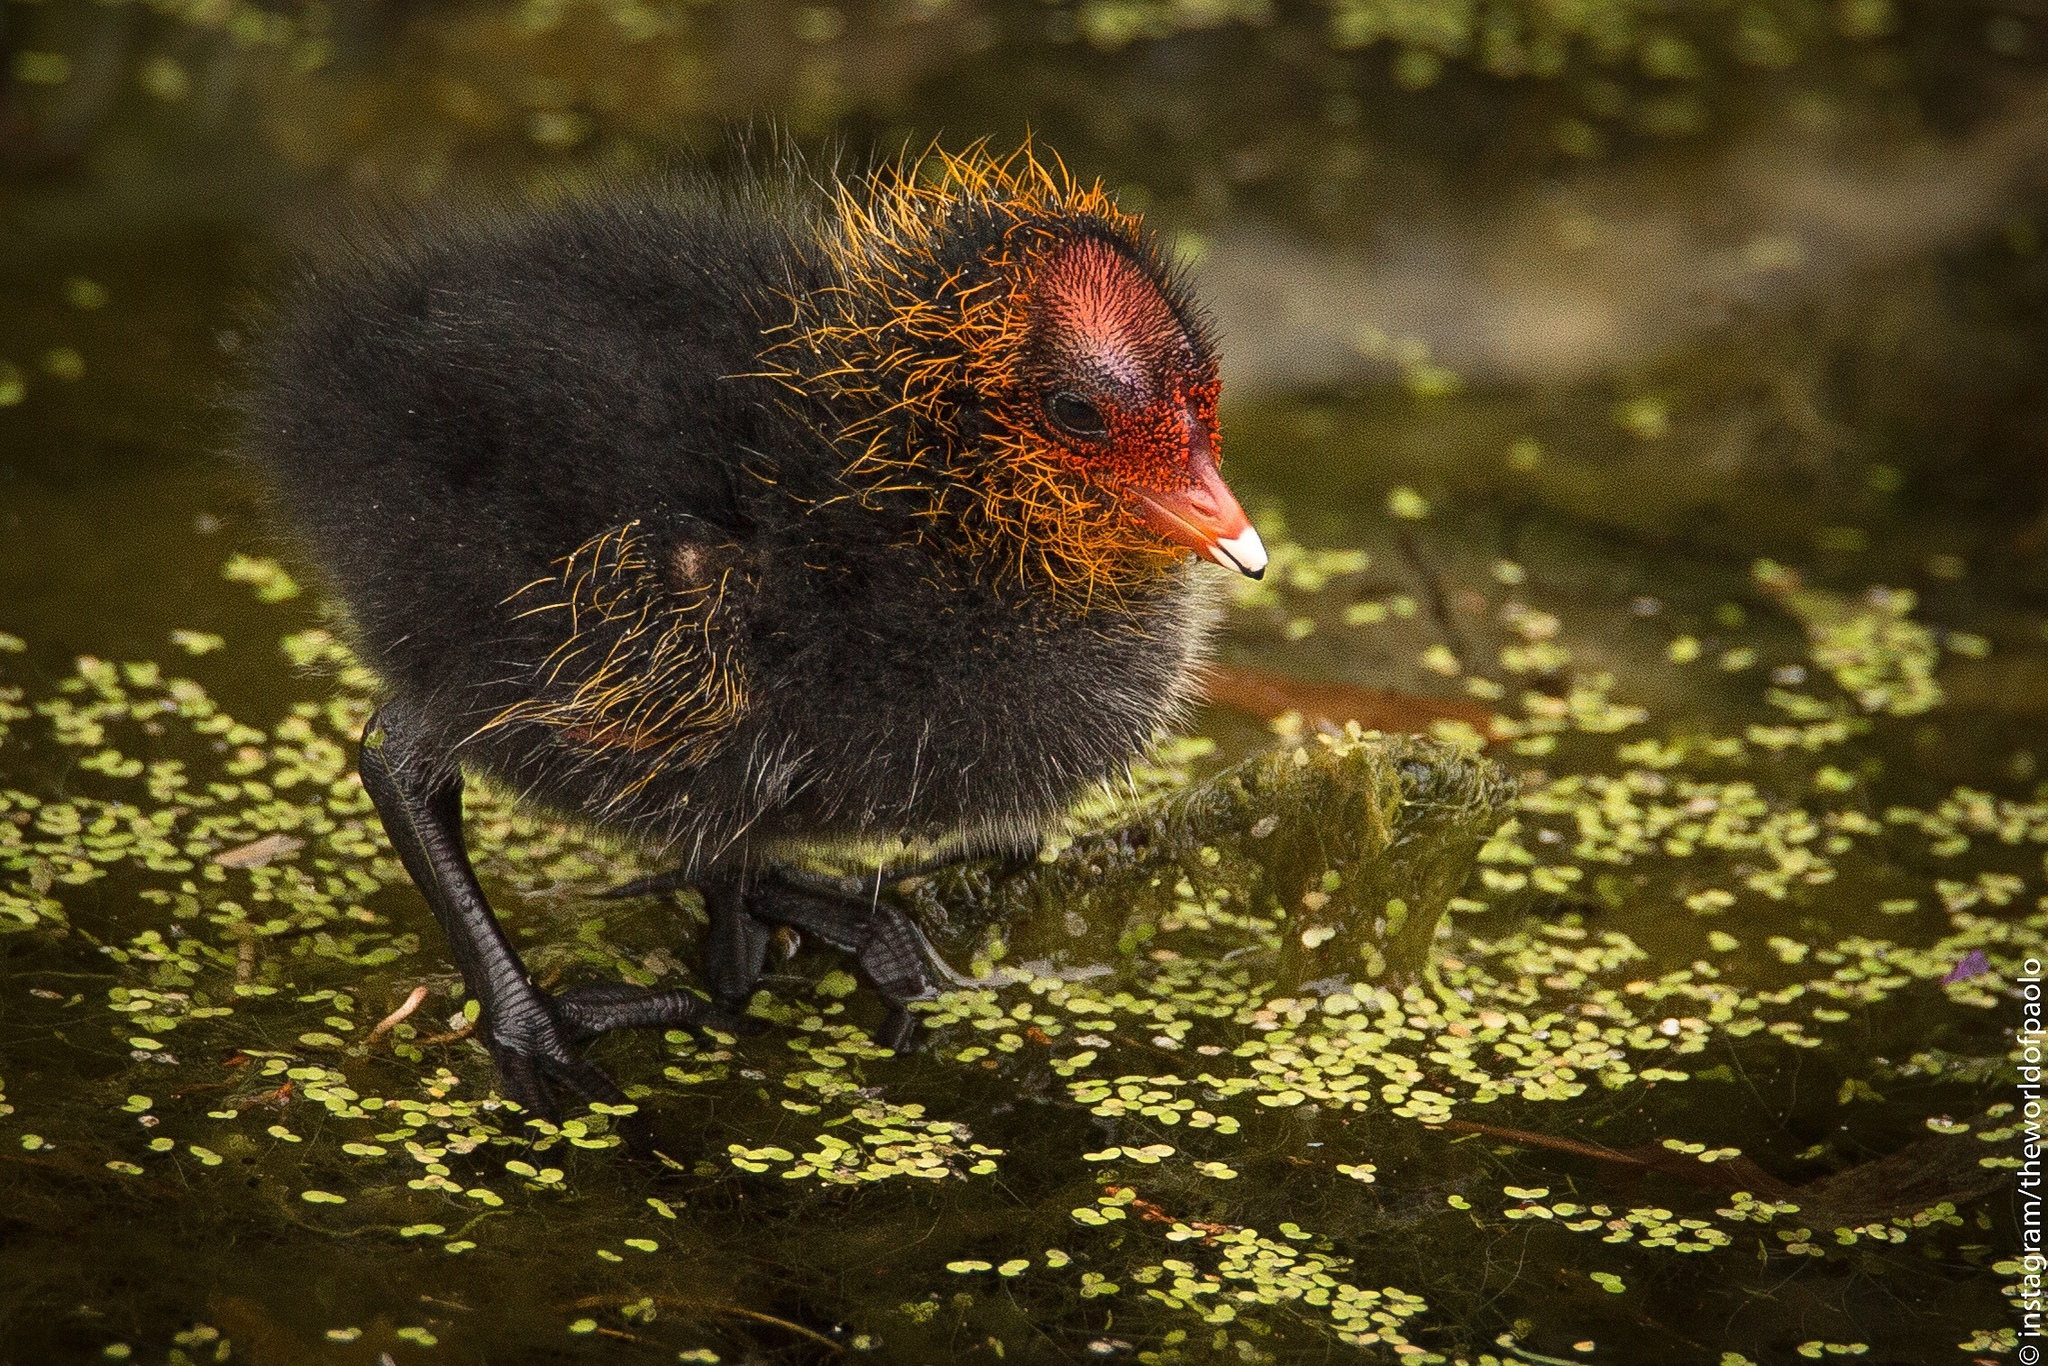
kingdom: Animalia
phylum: Chordata
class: Aves
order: Gruiformes
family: Rallidae
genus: Fulica
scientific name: Fulica atra
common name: Eurasian coot
